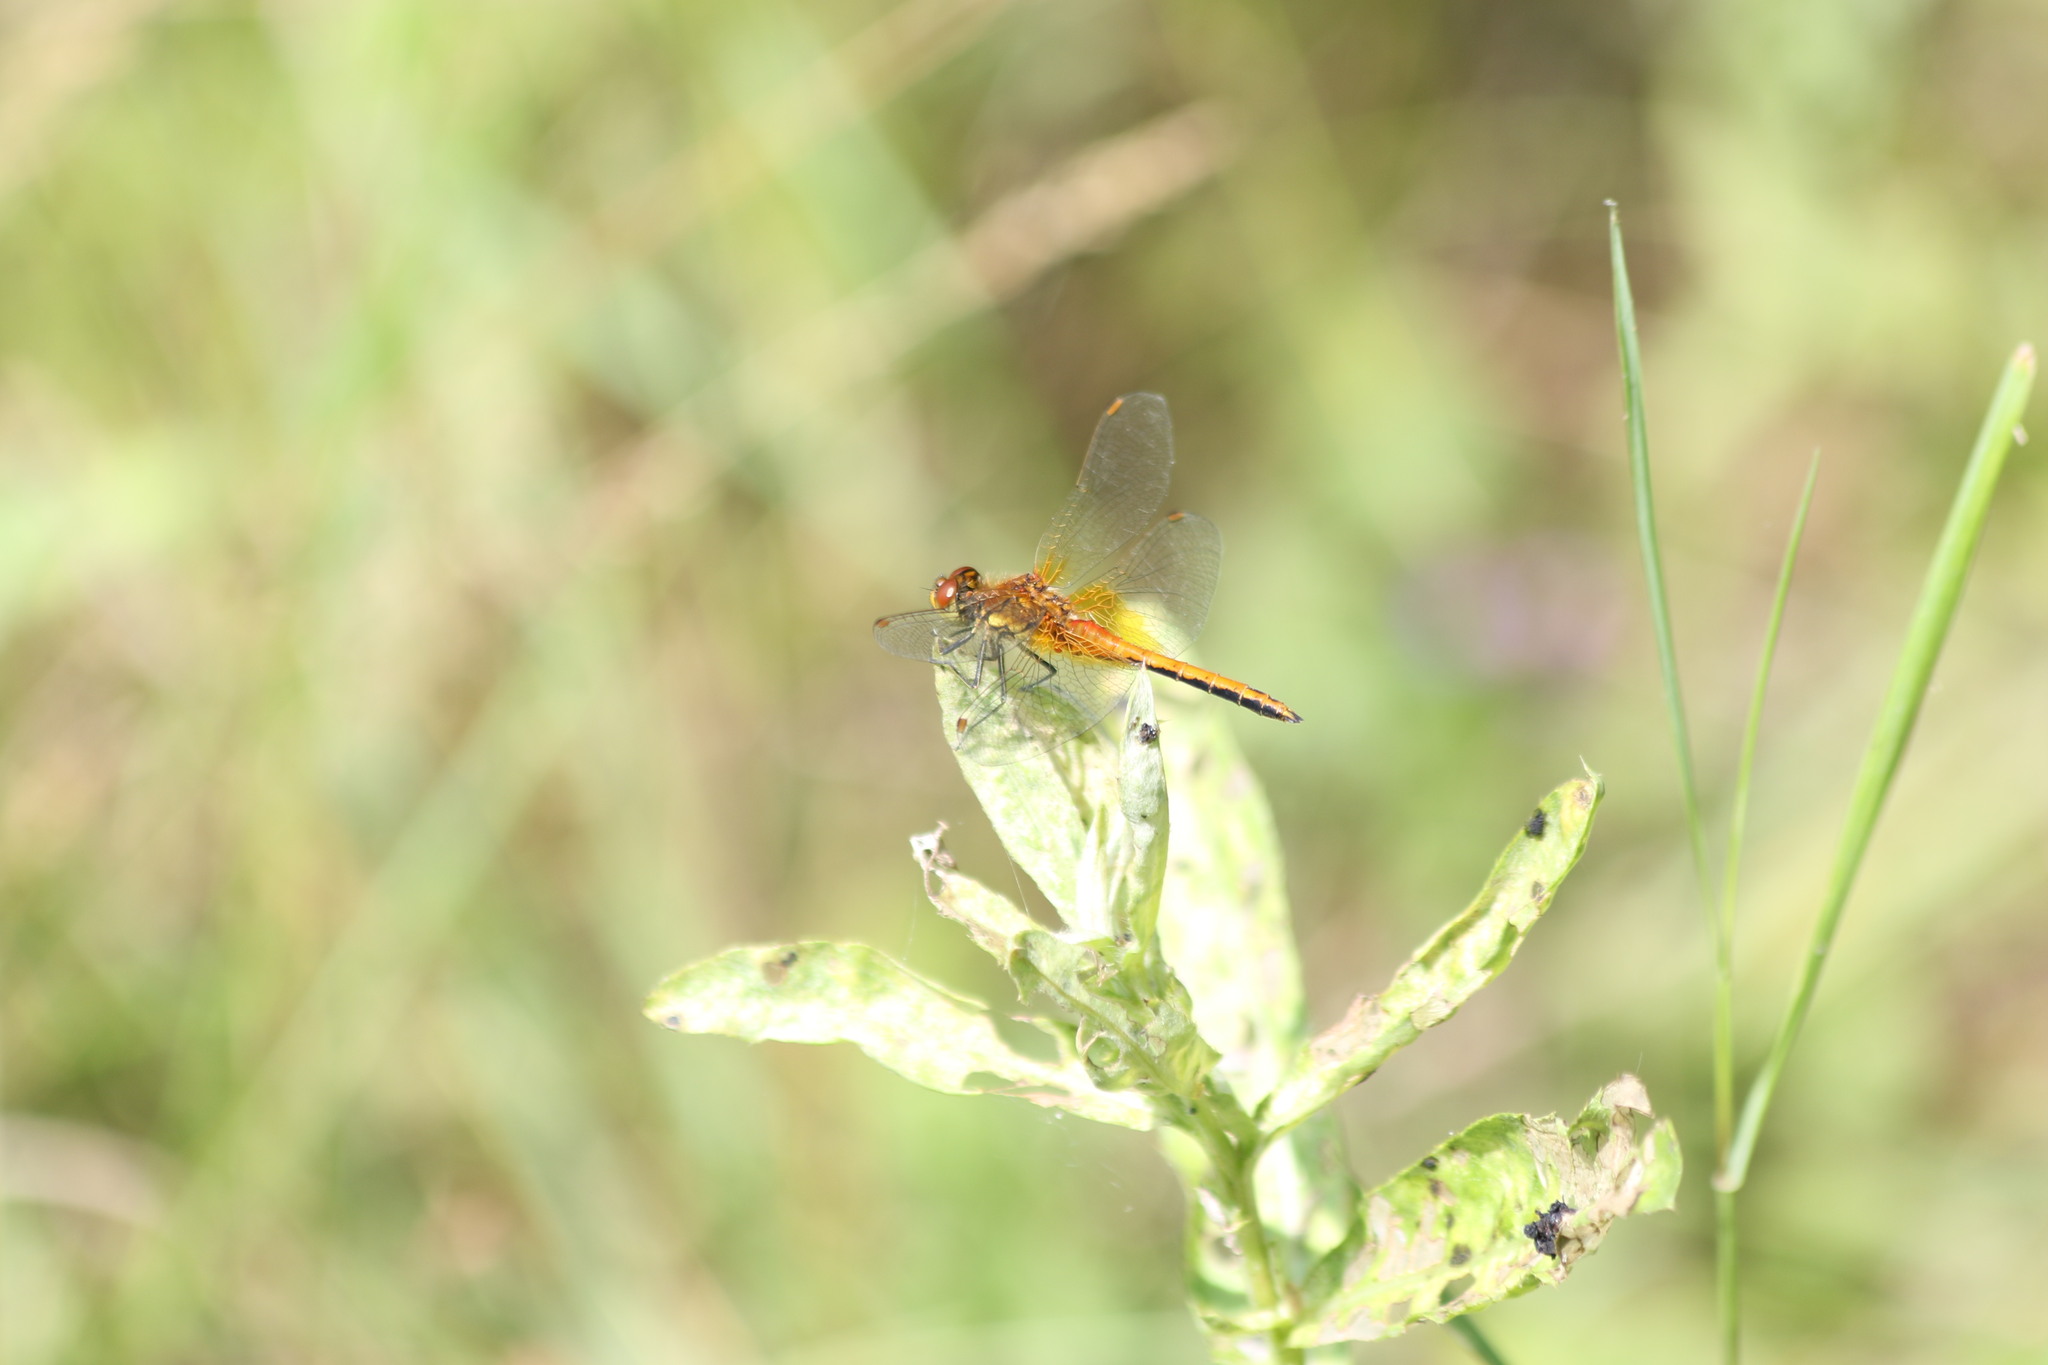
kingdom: Animalia
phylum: Arthropoda
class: Insecta
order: Odonata
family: Libellulidae
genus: Sympetrum
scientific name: Sympetrum flaveolum
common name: Yellow-winged darter
